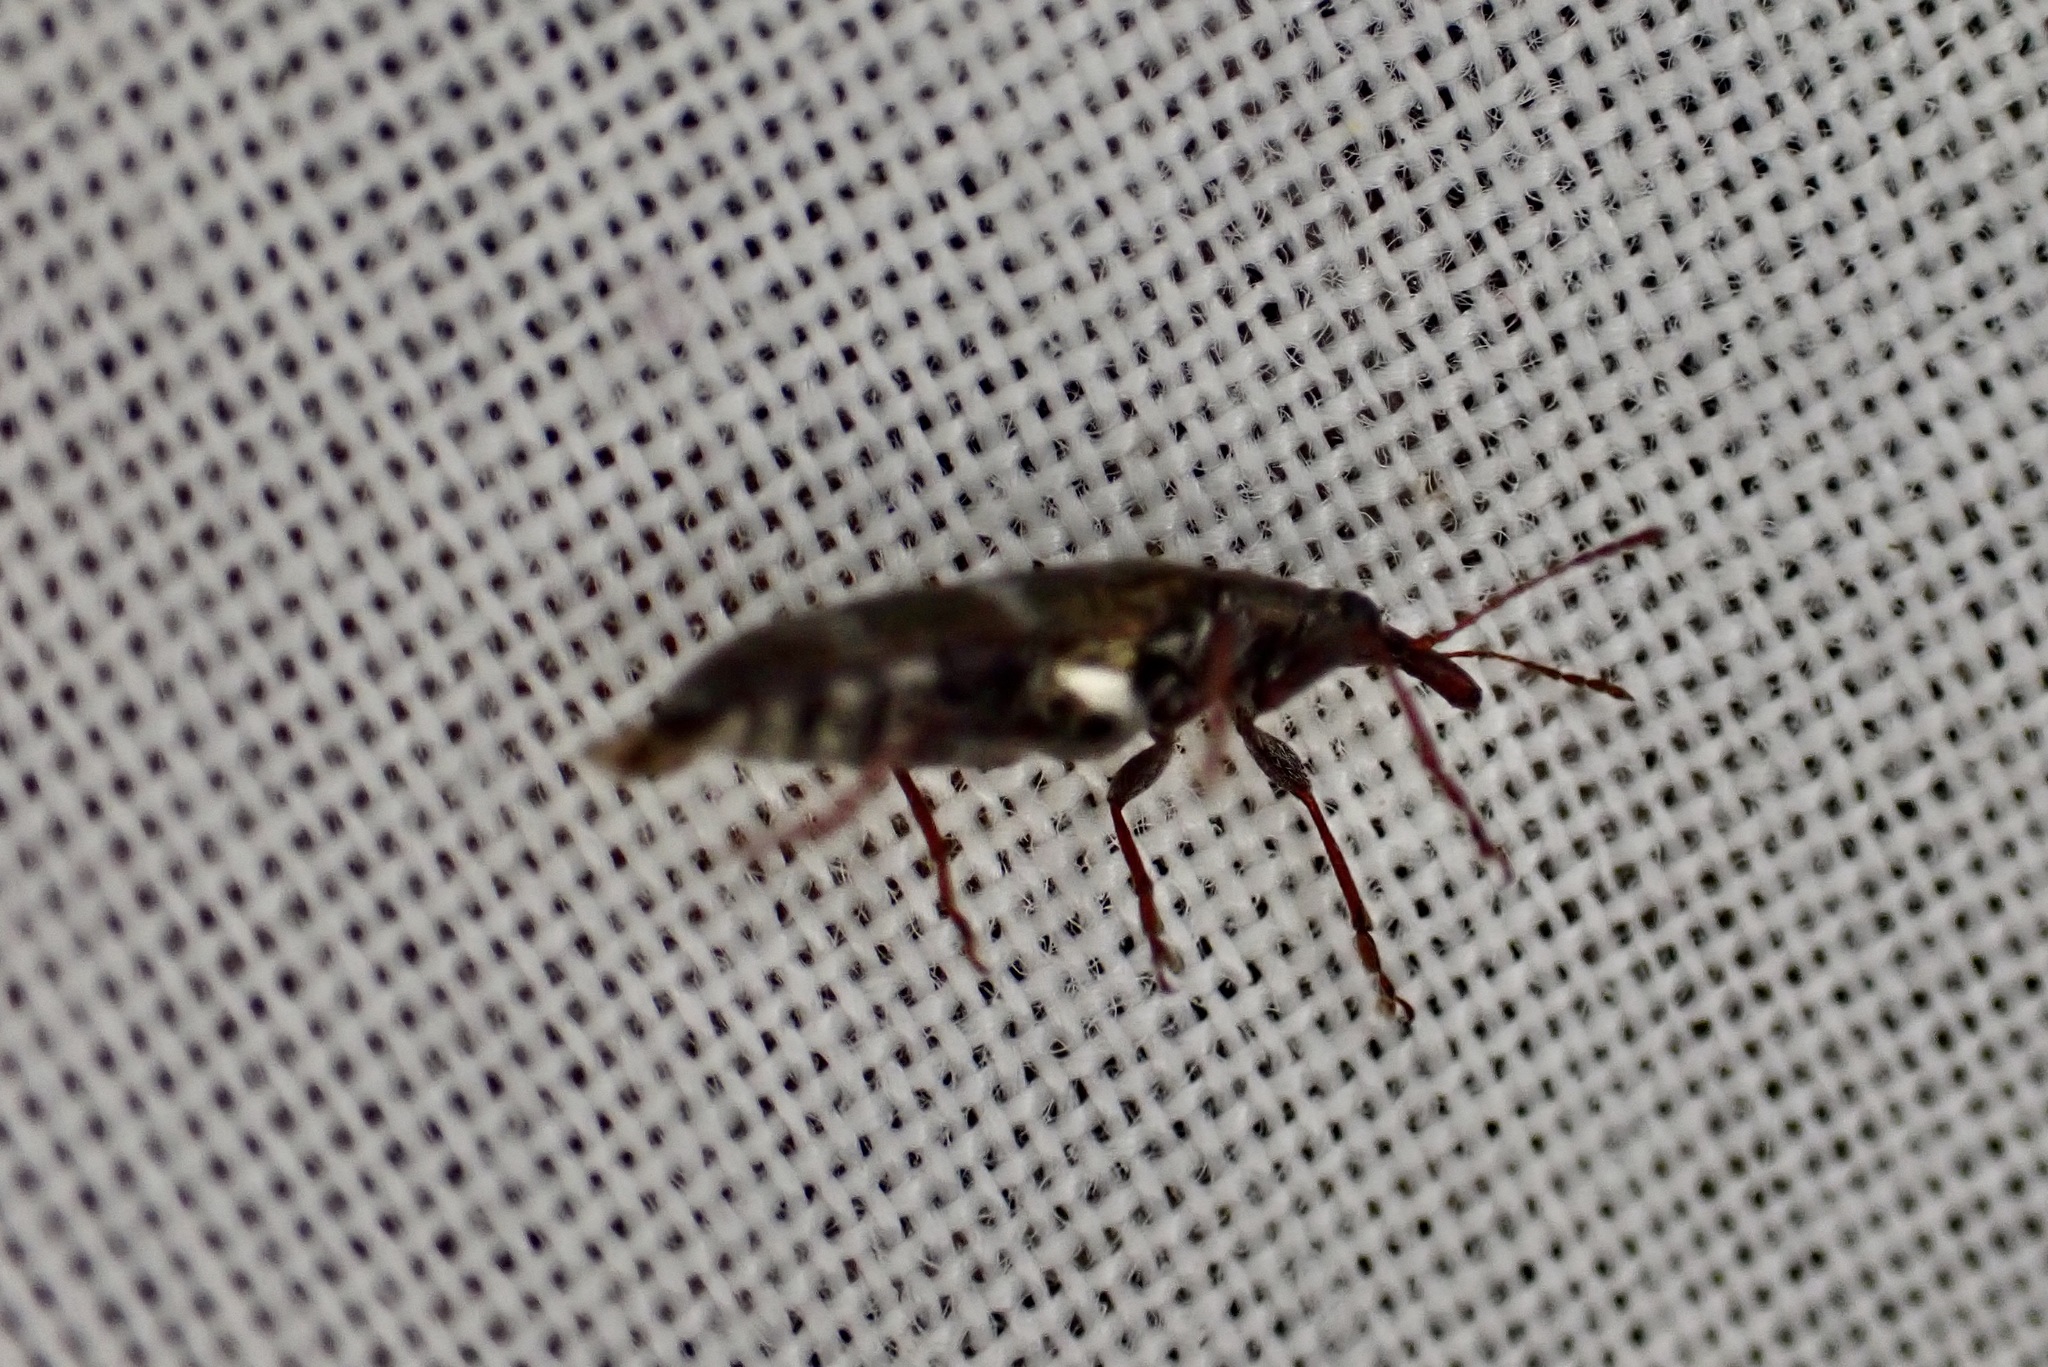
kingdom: Animalia
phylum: Arthropoda
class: Insecta
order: Coleoptera
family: Belidae
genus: Rhicnobelus
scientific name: Rhicnobelus
